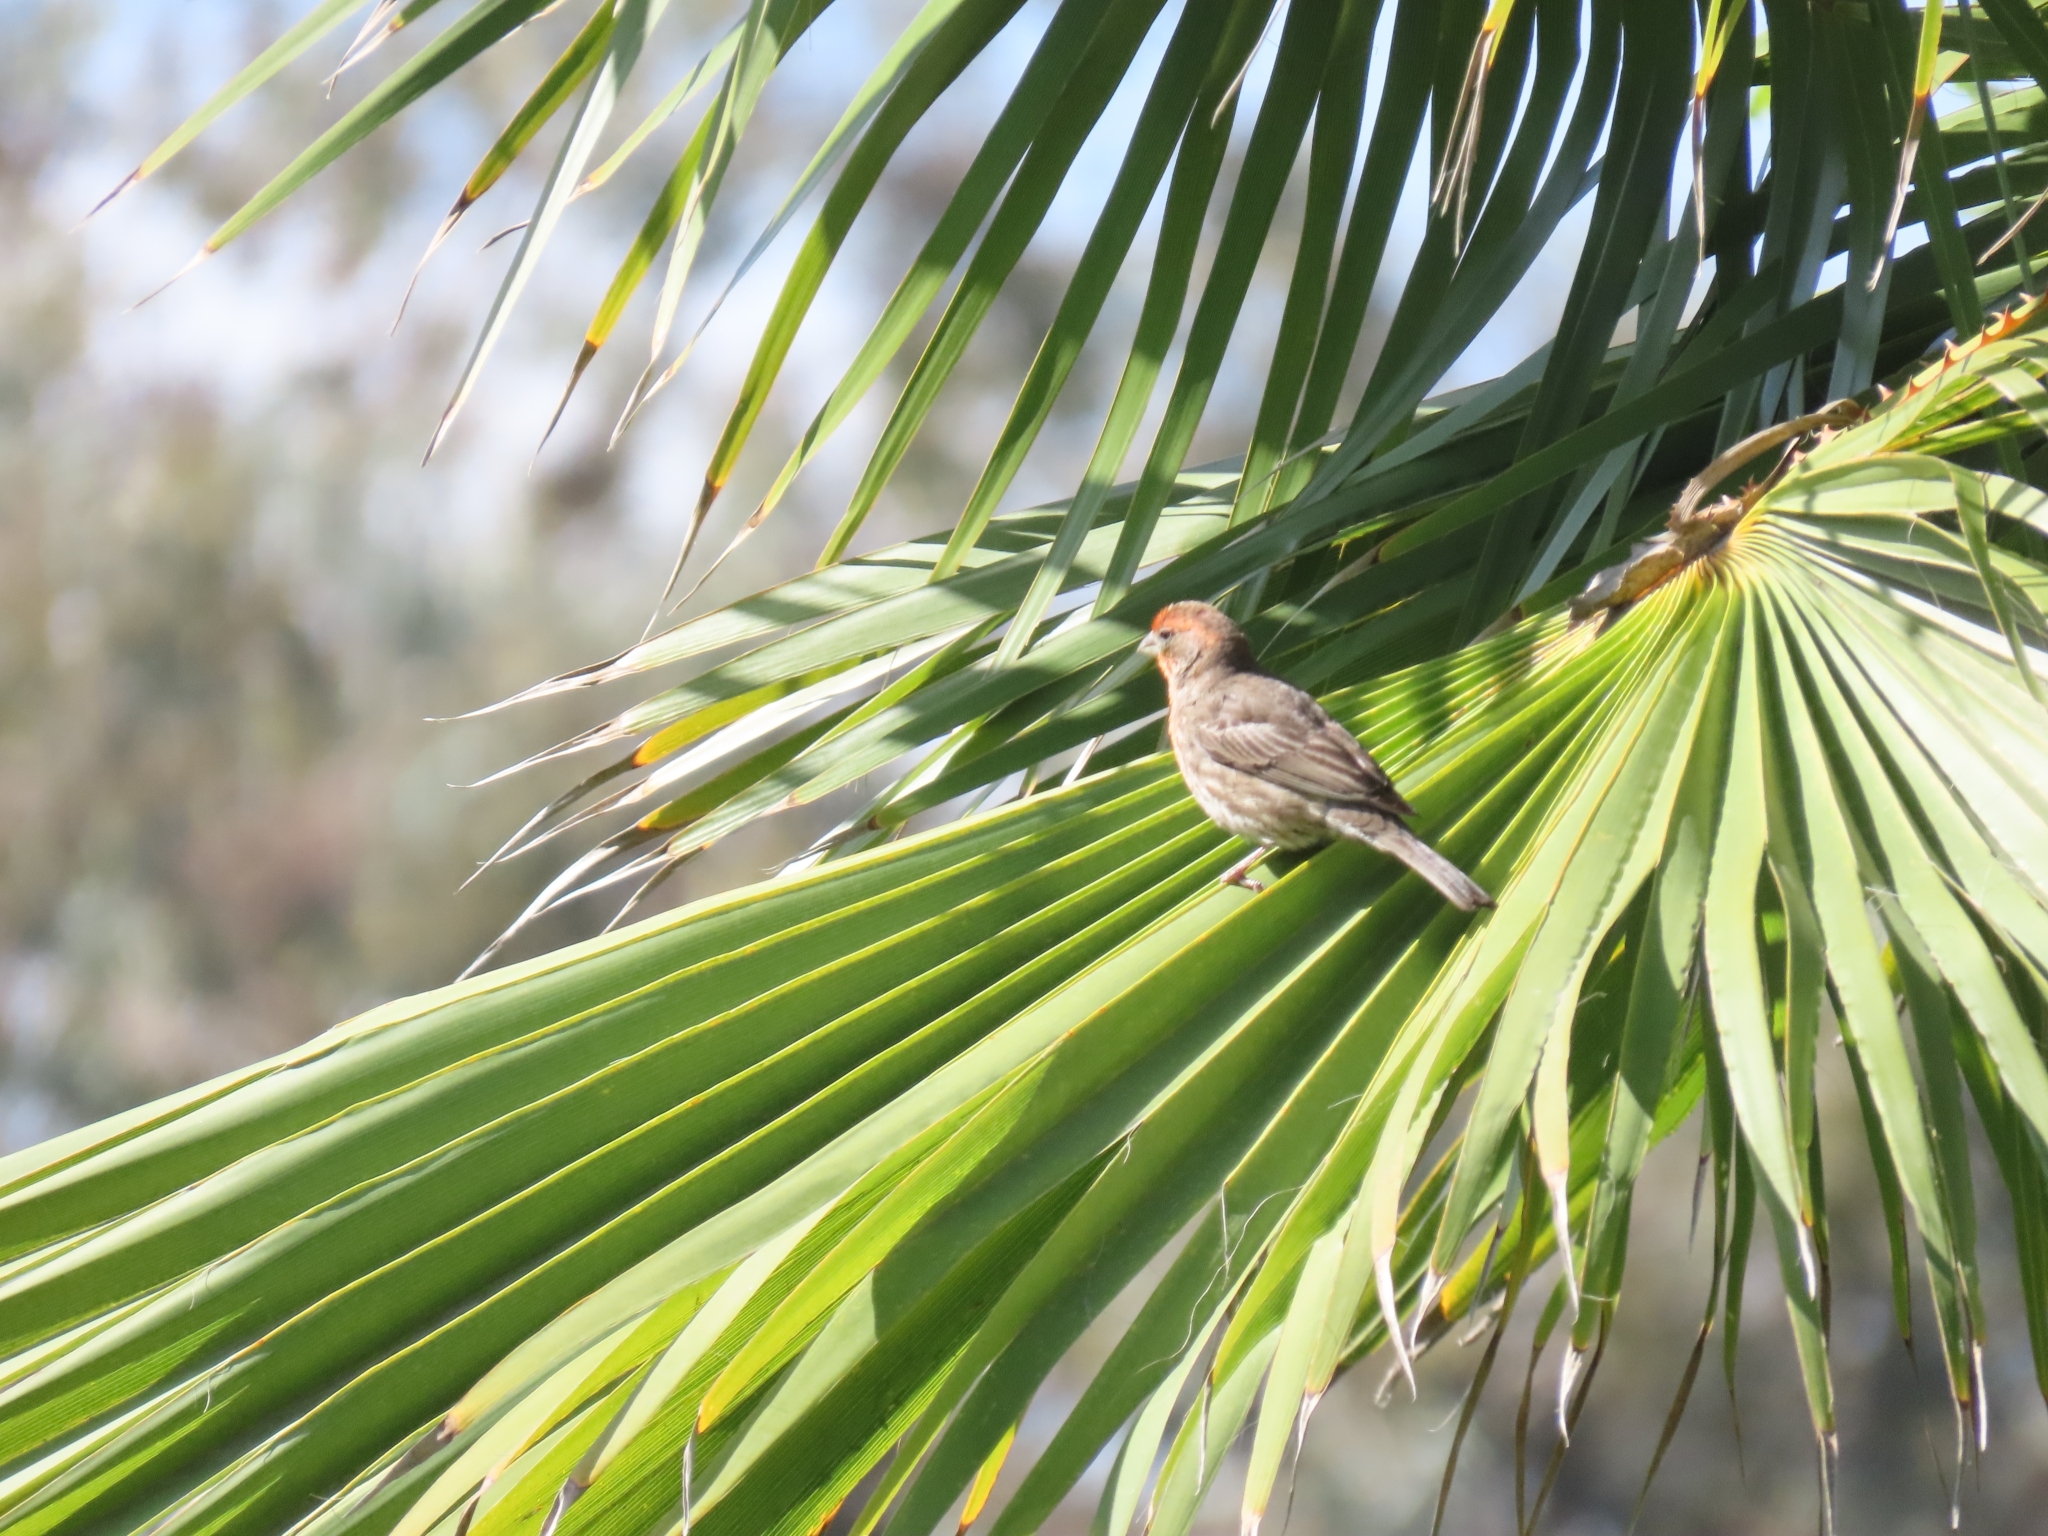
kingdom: Animalia
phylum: Chordata
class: Aves
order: Passeriformes
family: Fringillidae
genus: Haemorhous
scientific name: Haemorhous mexicanus
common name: House finch
